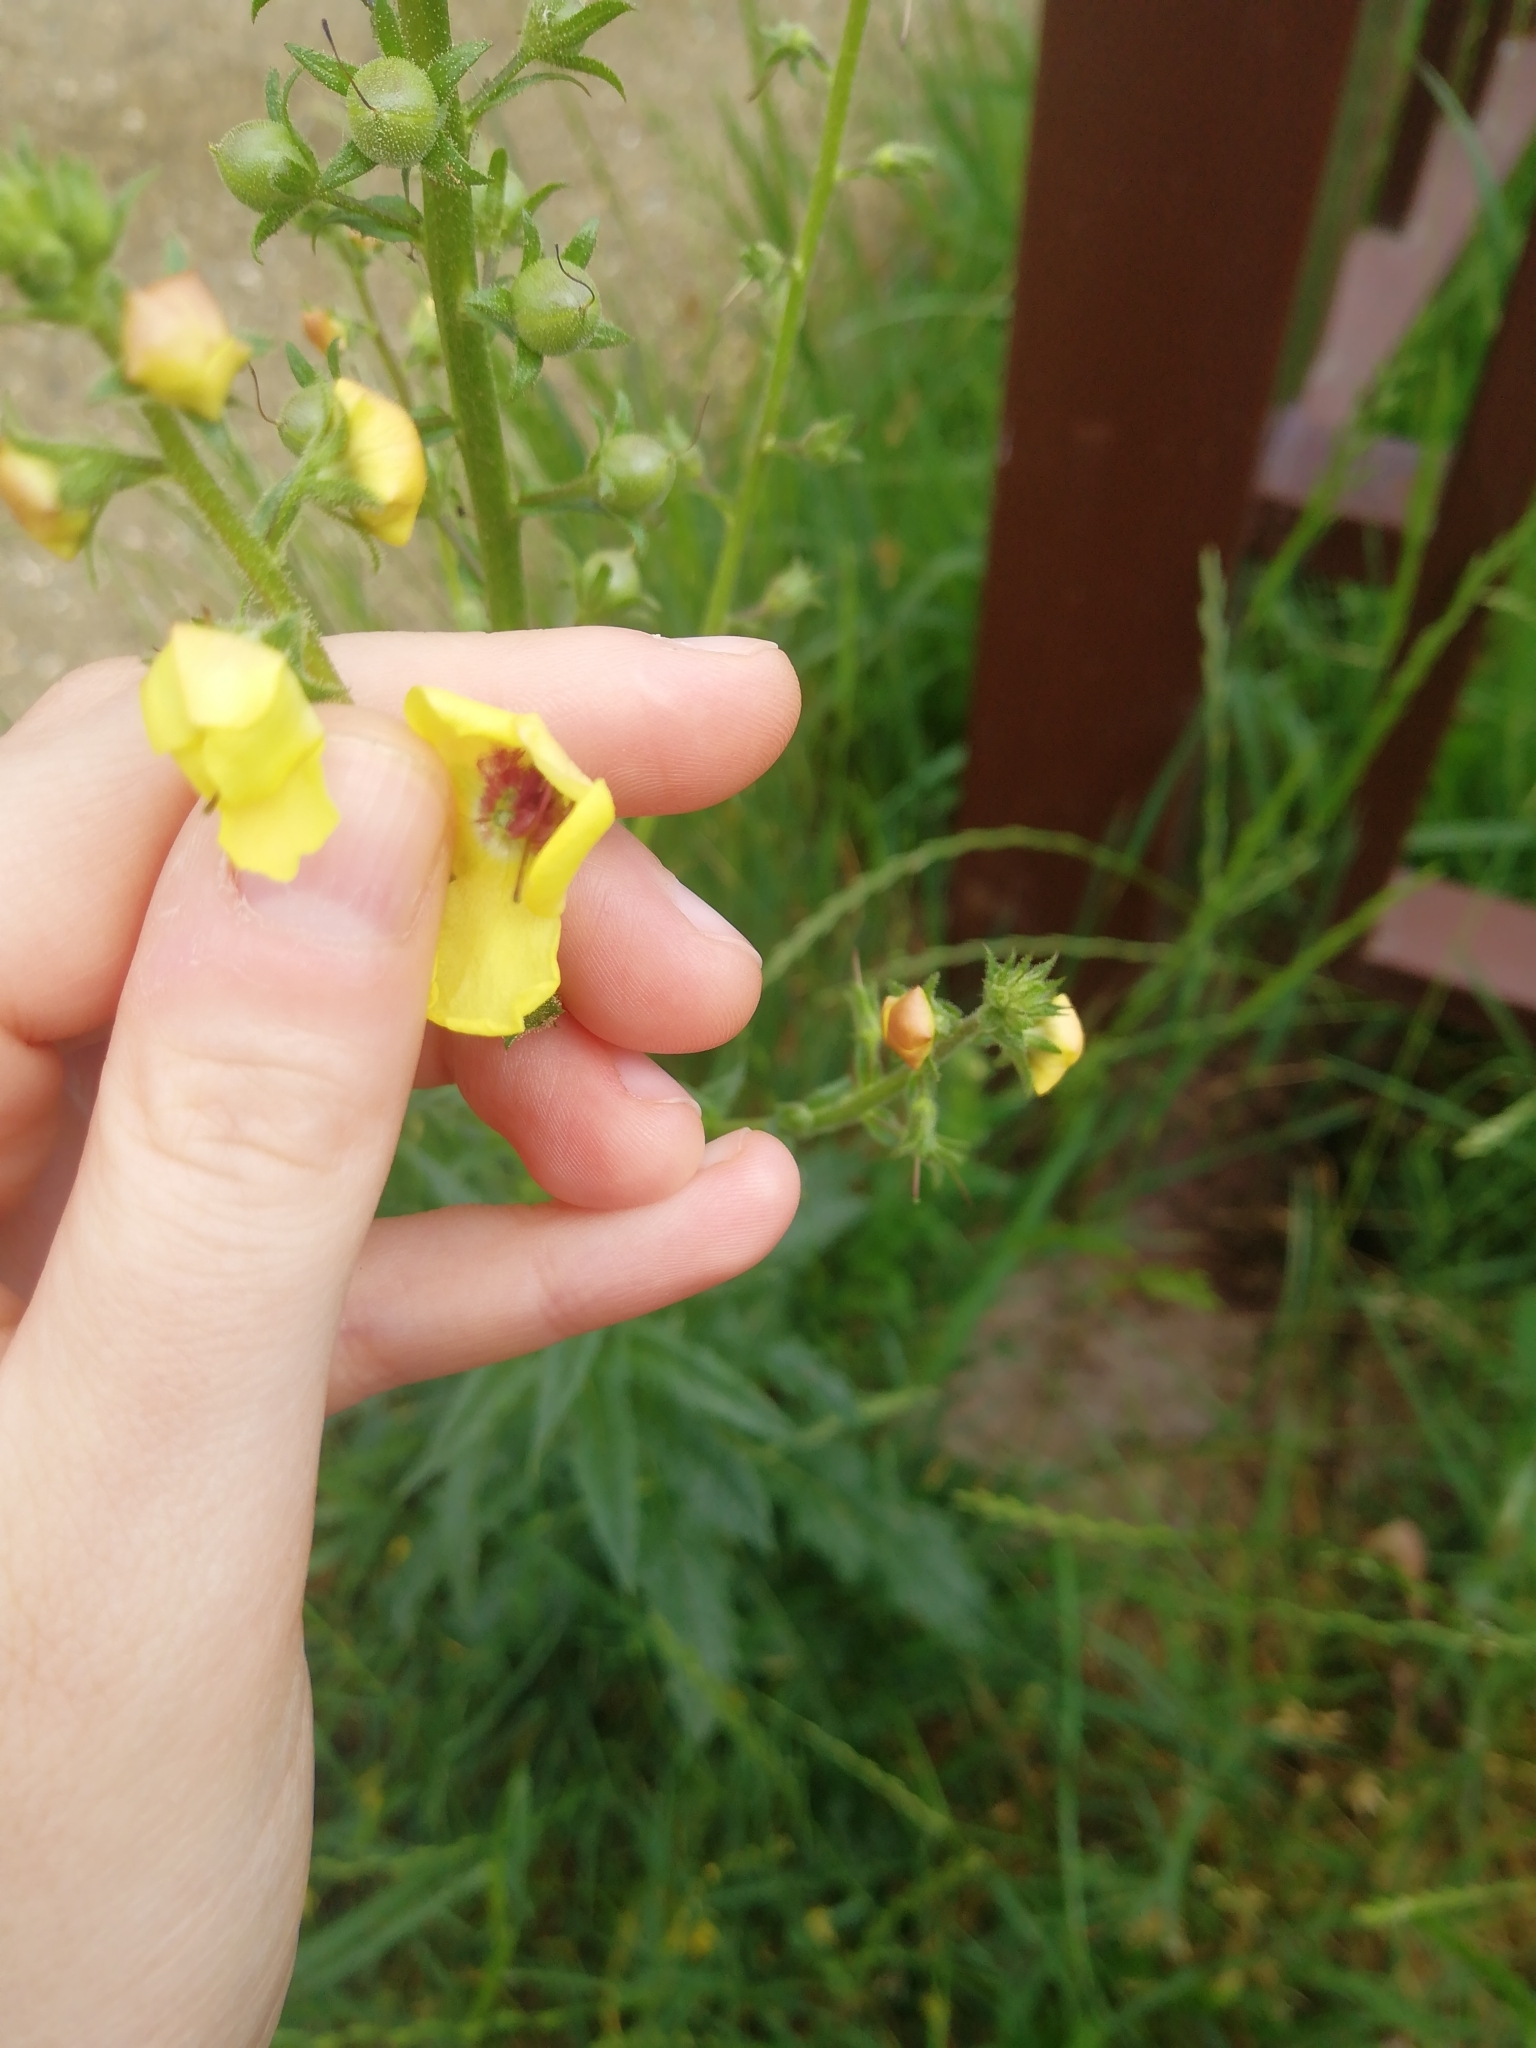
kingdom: Plantae
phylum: Tracheophyta
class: Magnoliopsida
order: Lamiales
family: Scrophulariaceae
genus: Verbascum
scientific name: Verbascum blattaria
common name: Moth mullein
